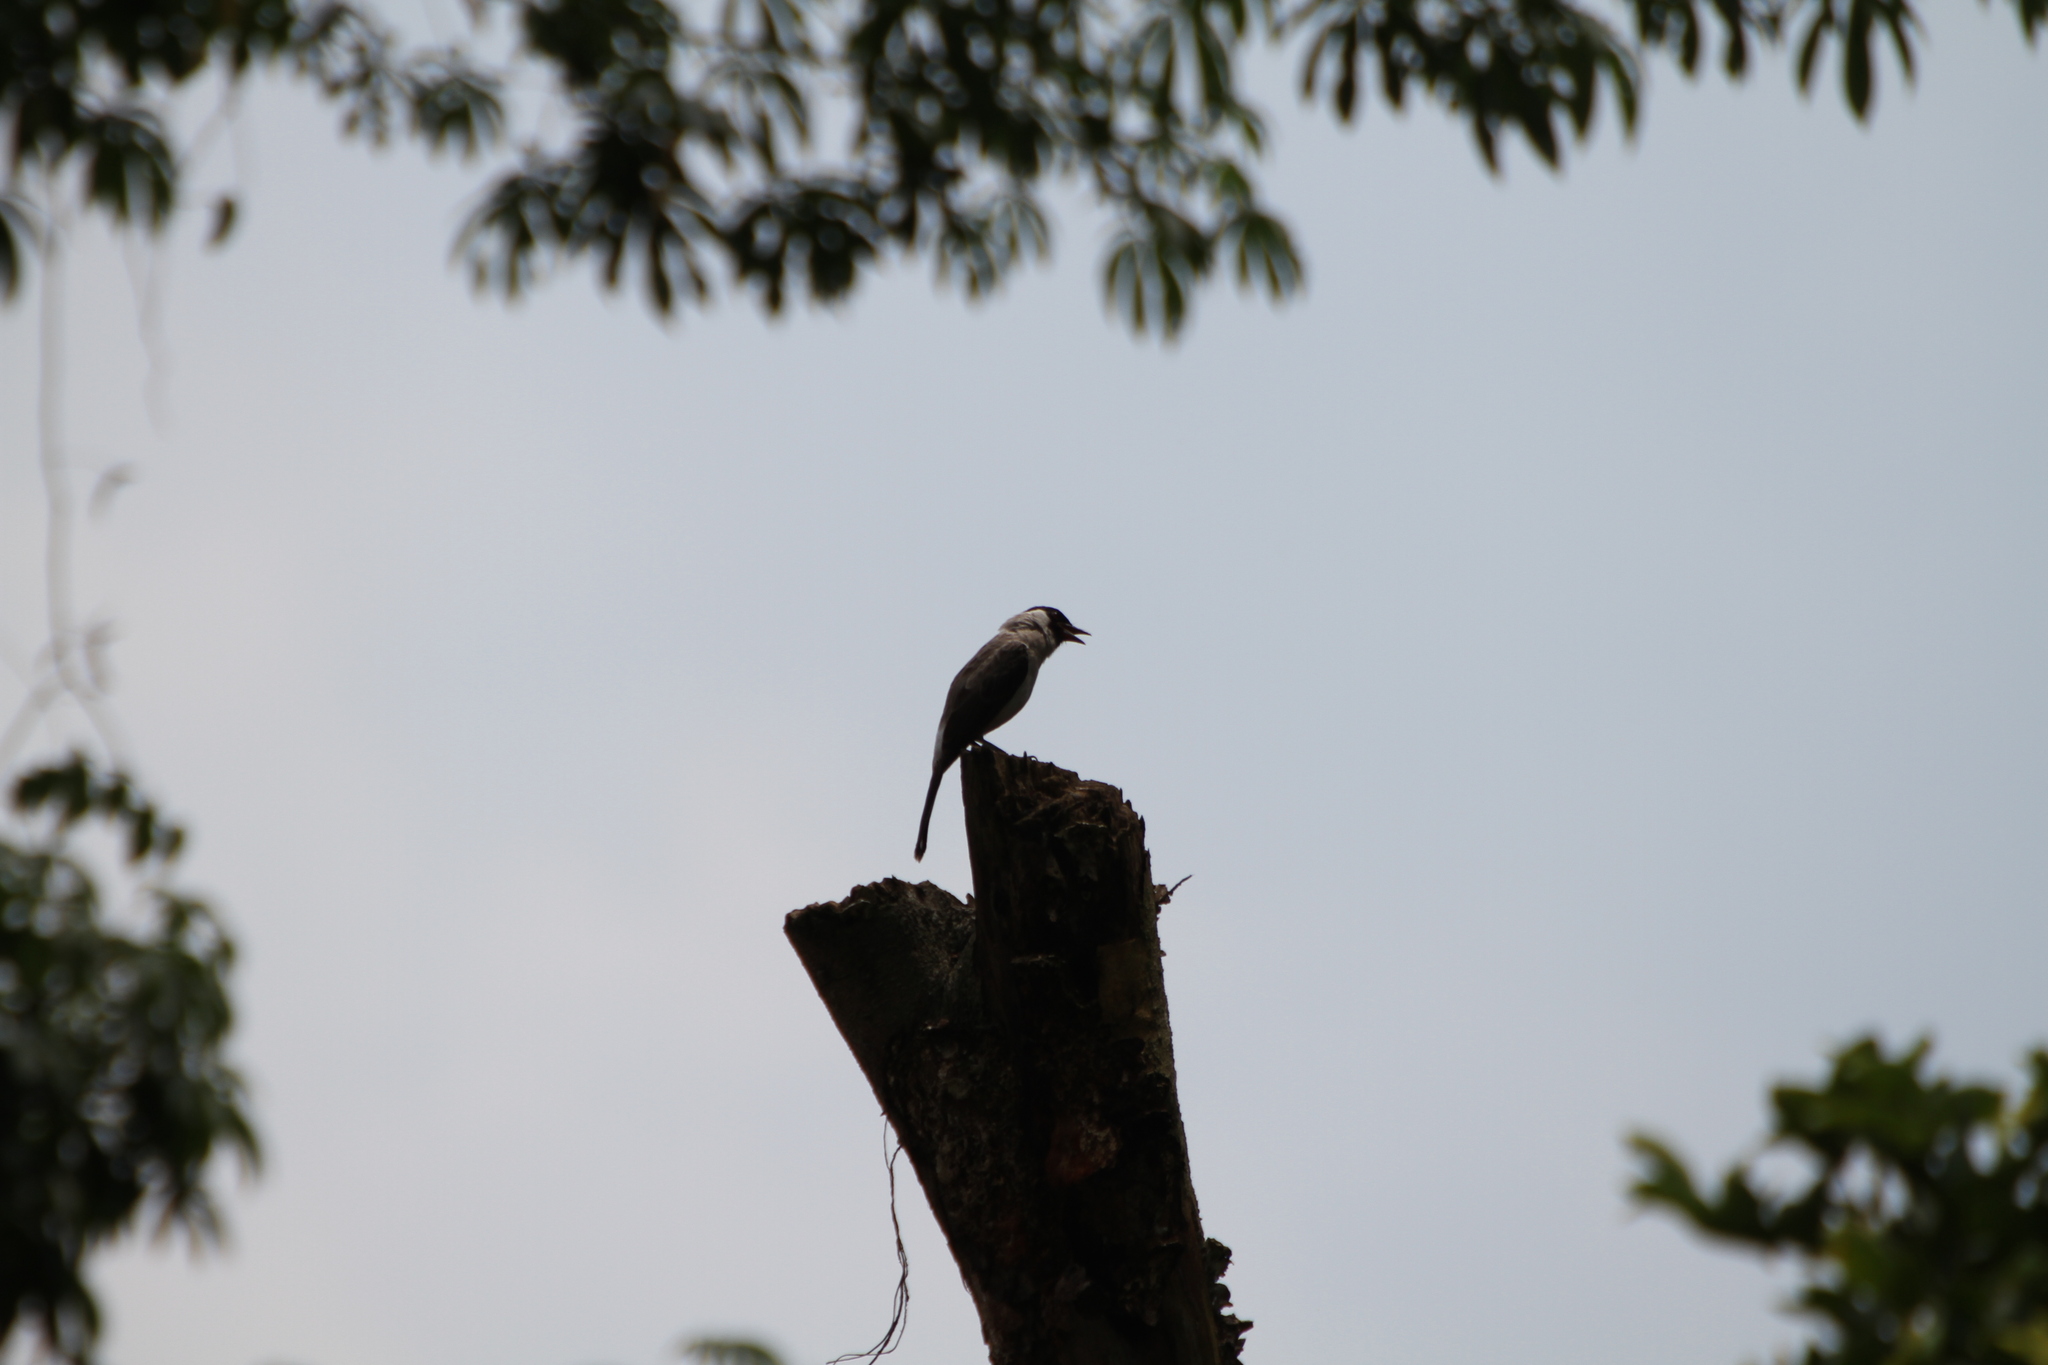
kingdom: Animalia
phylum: Chordata
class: Aves
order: Passeriformes
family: Pycnonotidae
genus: Pycnonotus
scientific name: Pycnonotus aurigaster
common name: Sooty-headed bulbul
